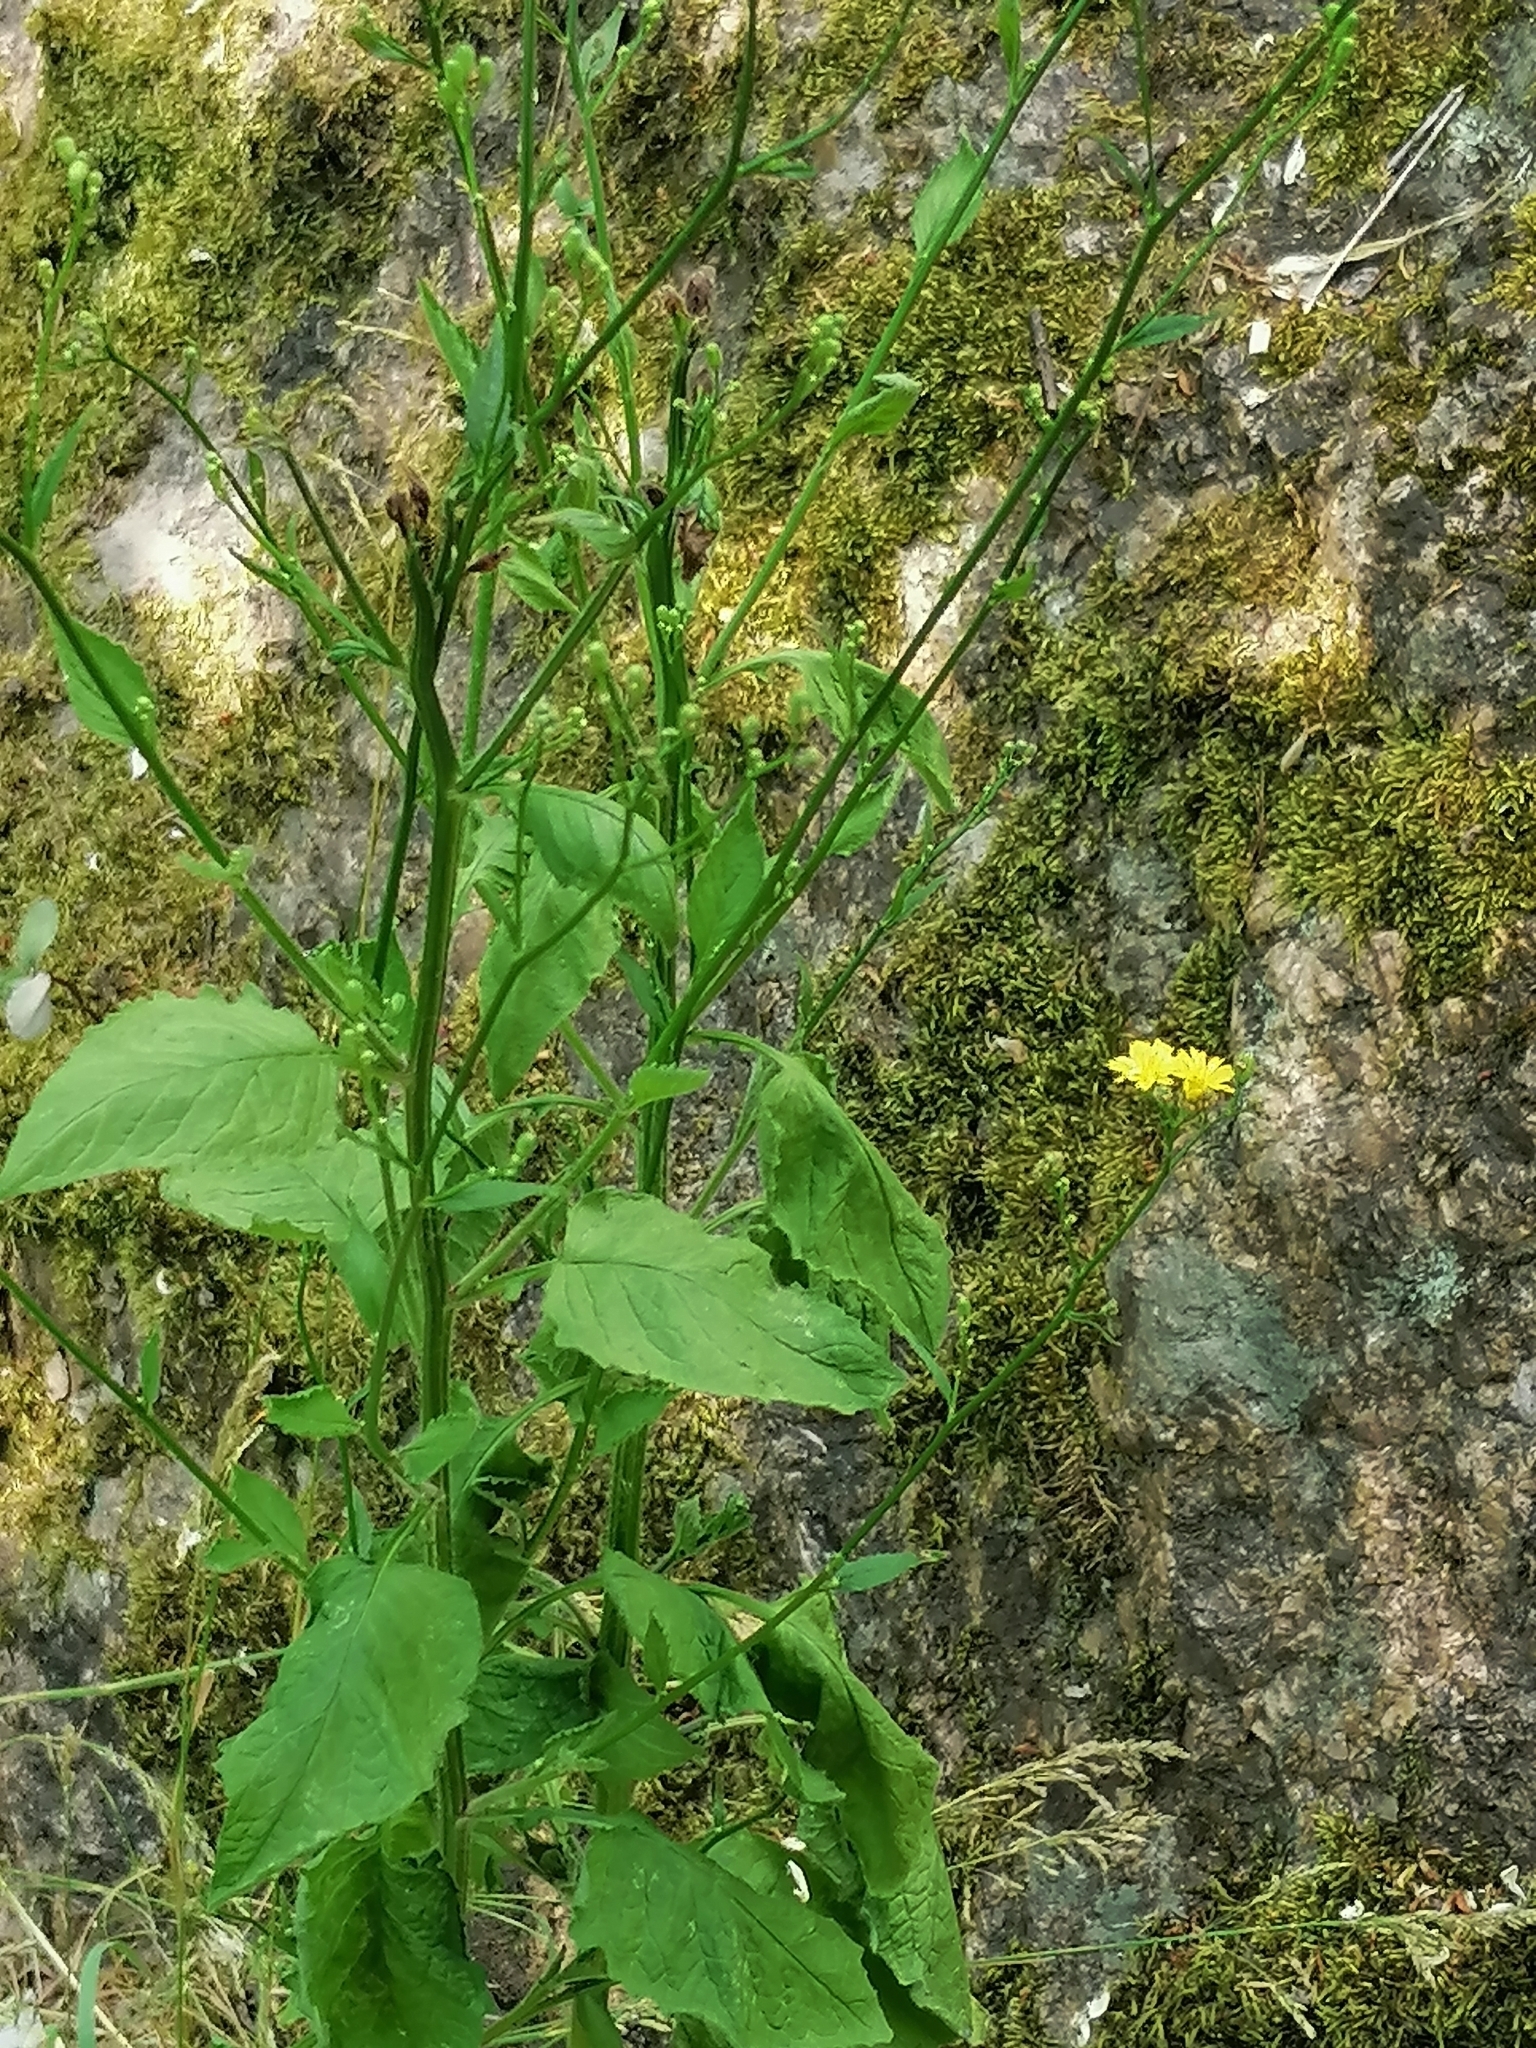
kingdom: Plantae
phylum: Tracheophyta
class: Magnoliopsida
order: Asterales
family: Asteraceae
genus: Lapsana
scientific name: Lapsana communis
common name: Nipplewort
